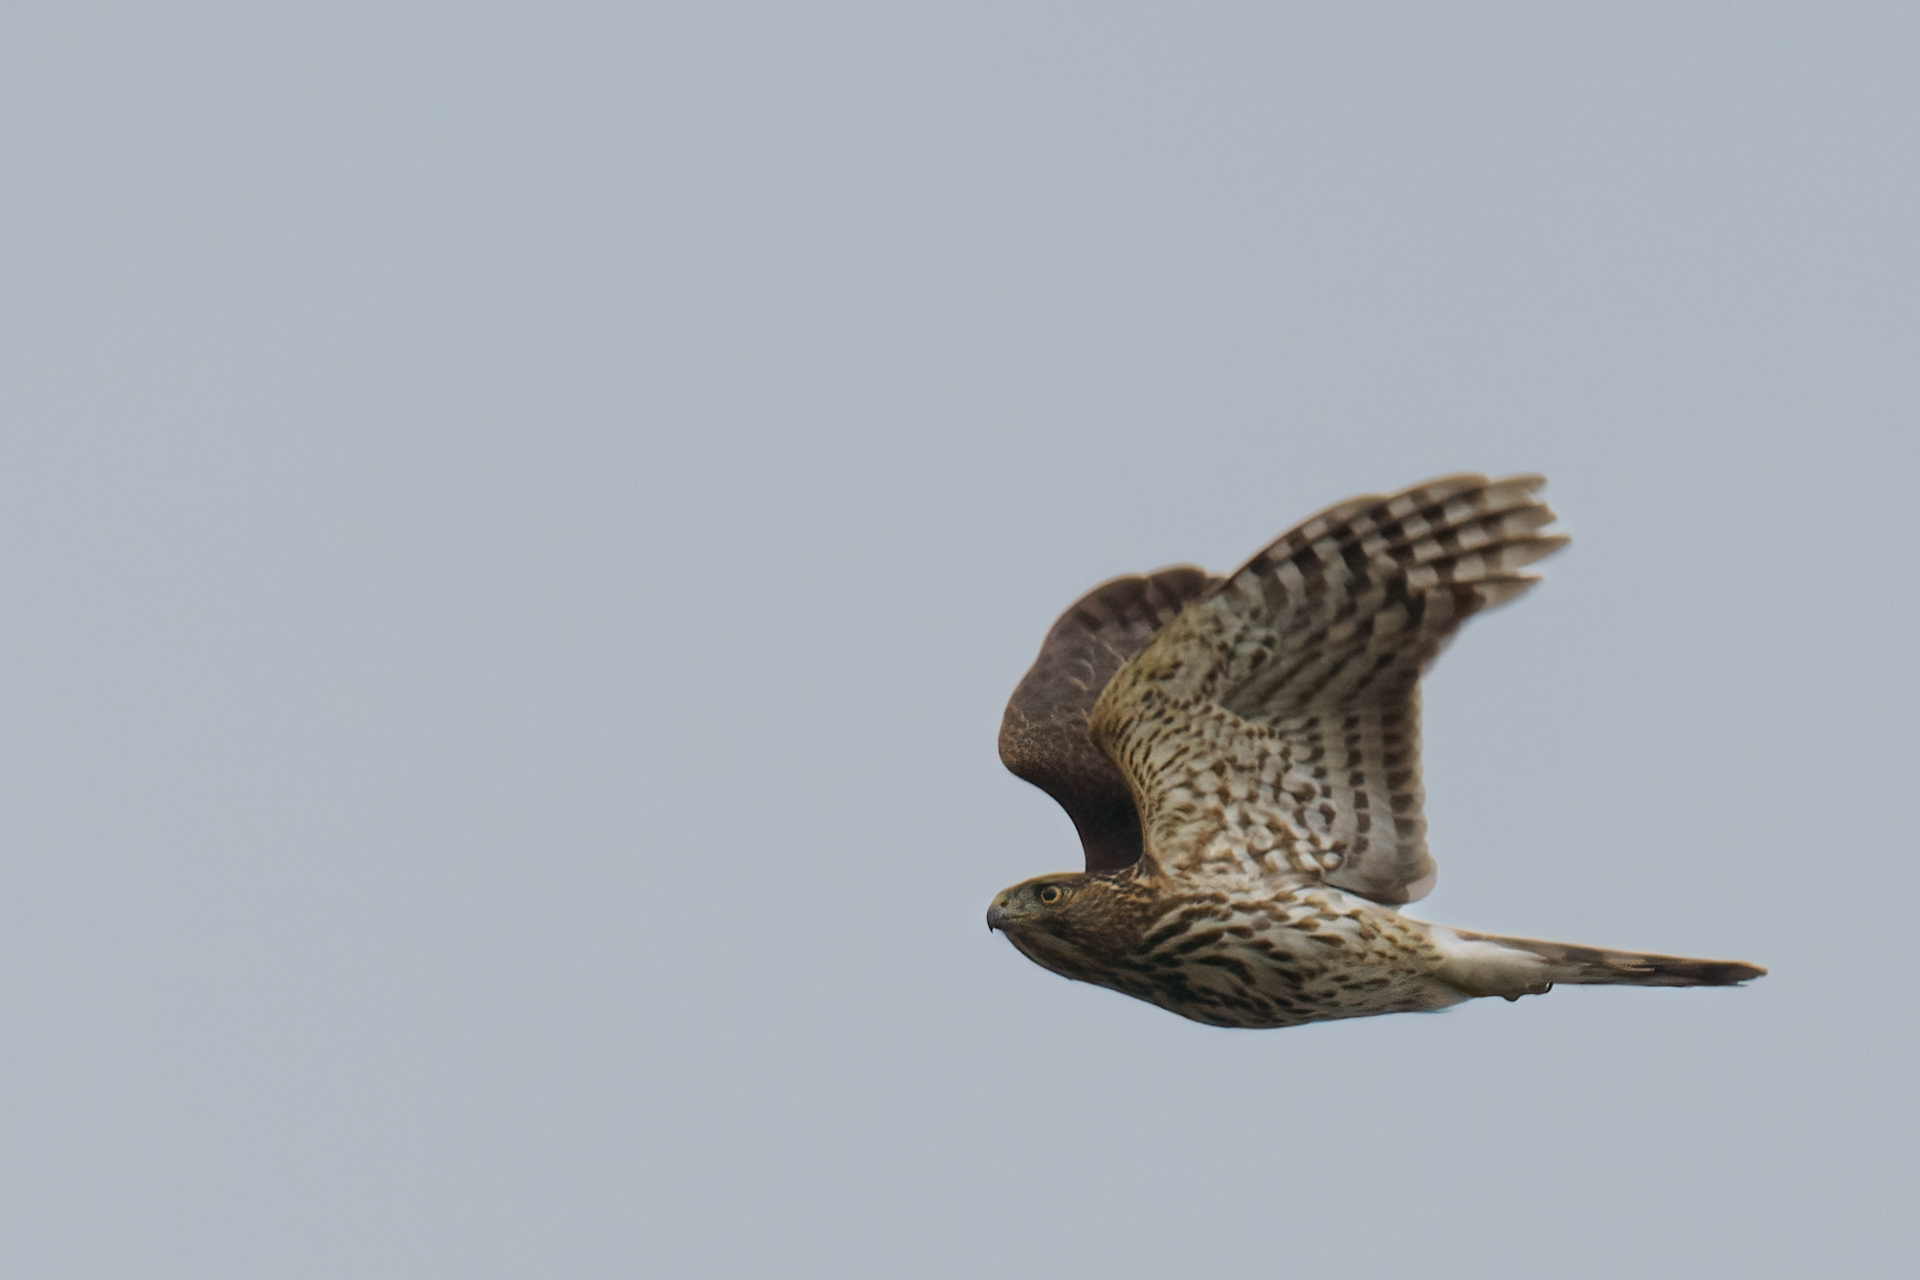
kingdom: Animalia
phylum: Chordata
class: Aves
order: Accipitriformes
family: Accipitridae
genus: Accipiter
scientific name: Accipiter cooperii
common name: Cooper's hawk
